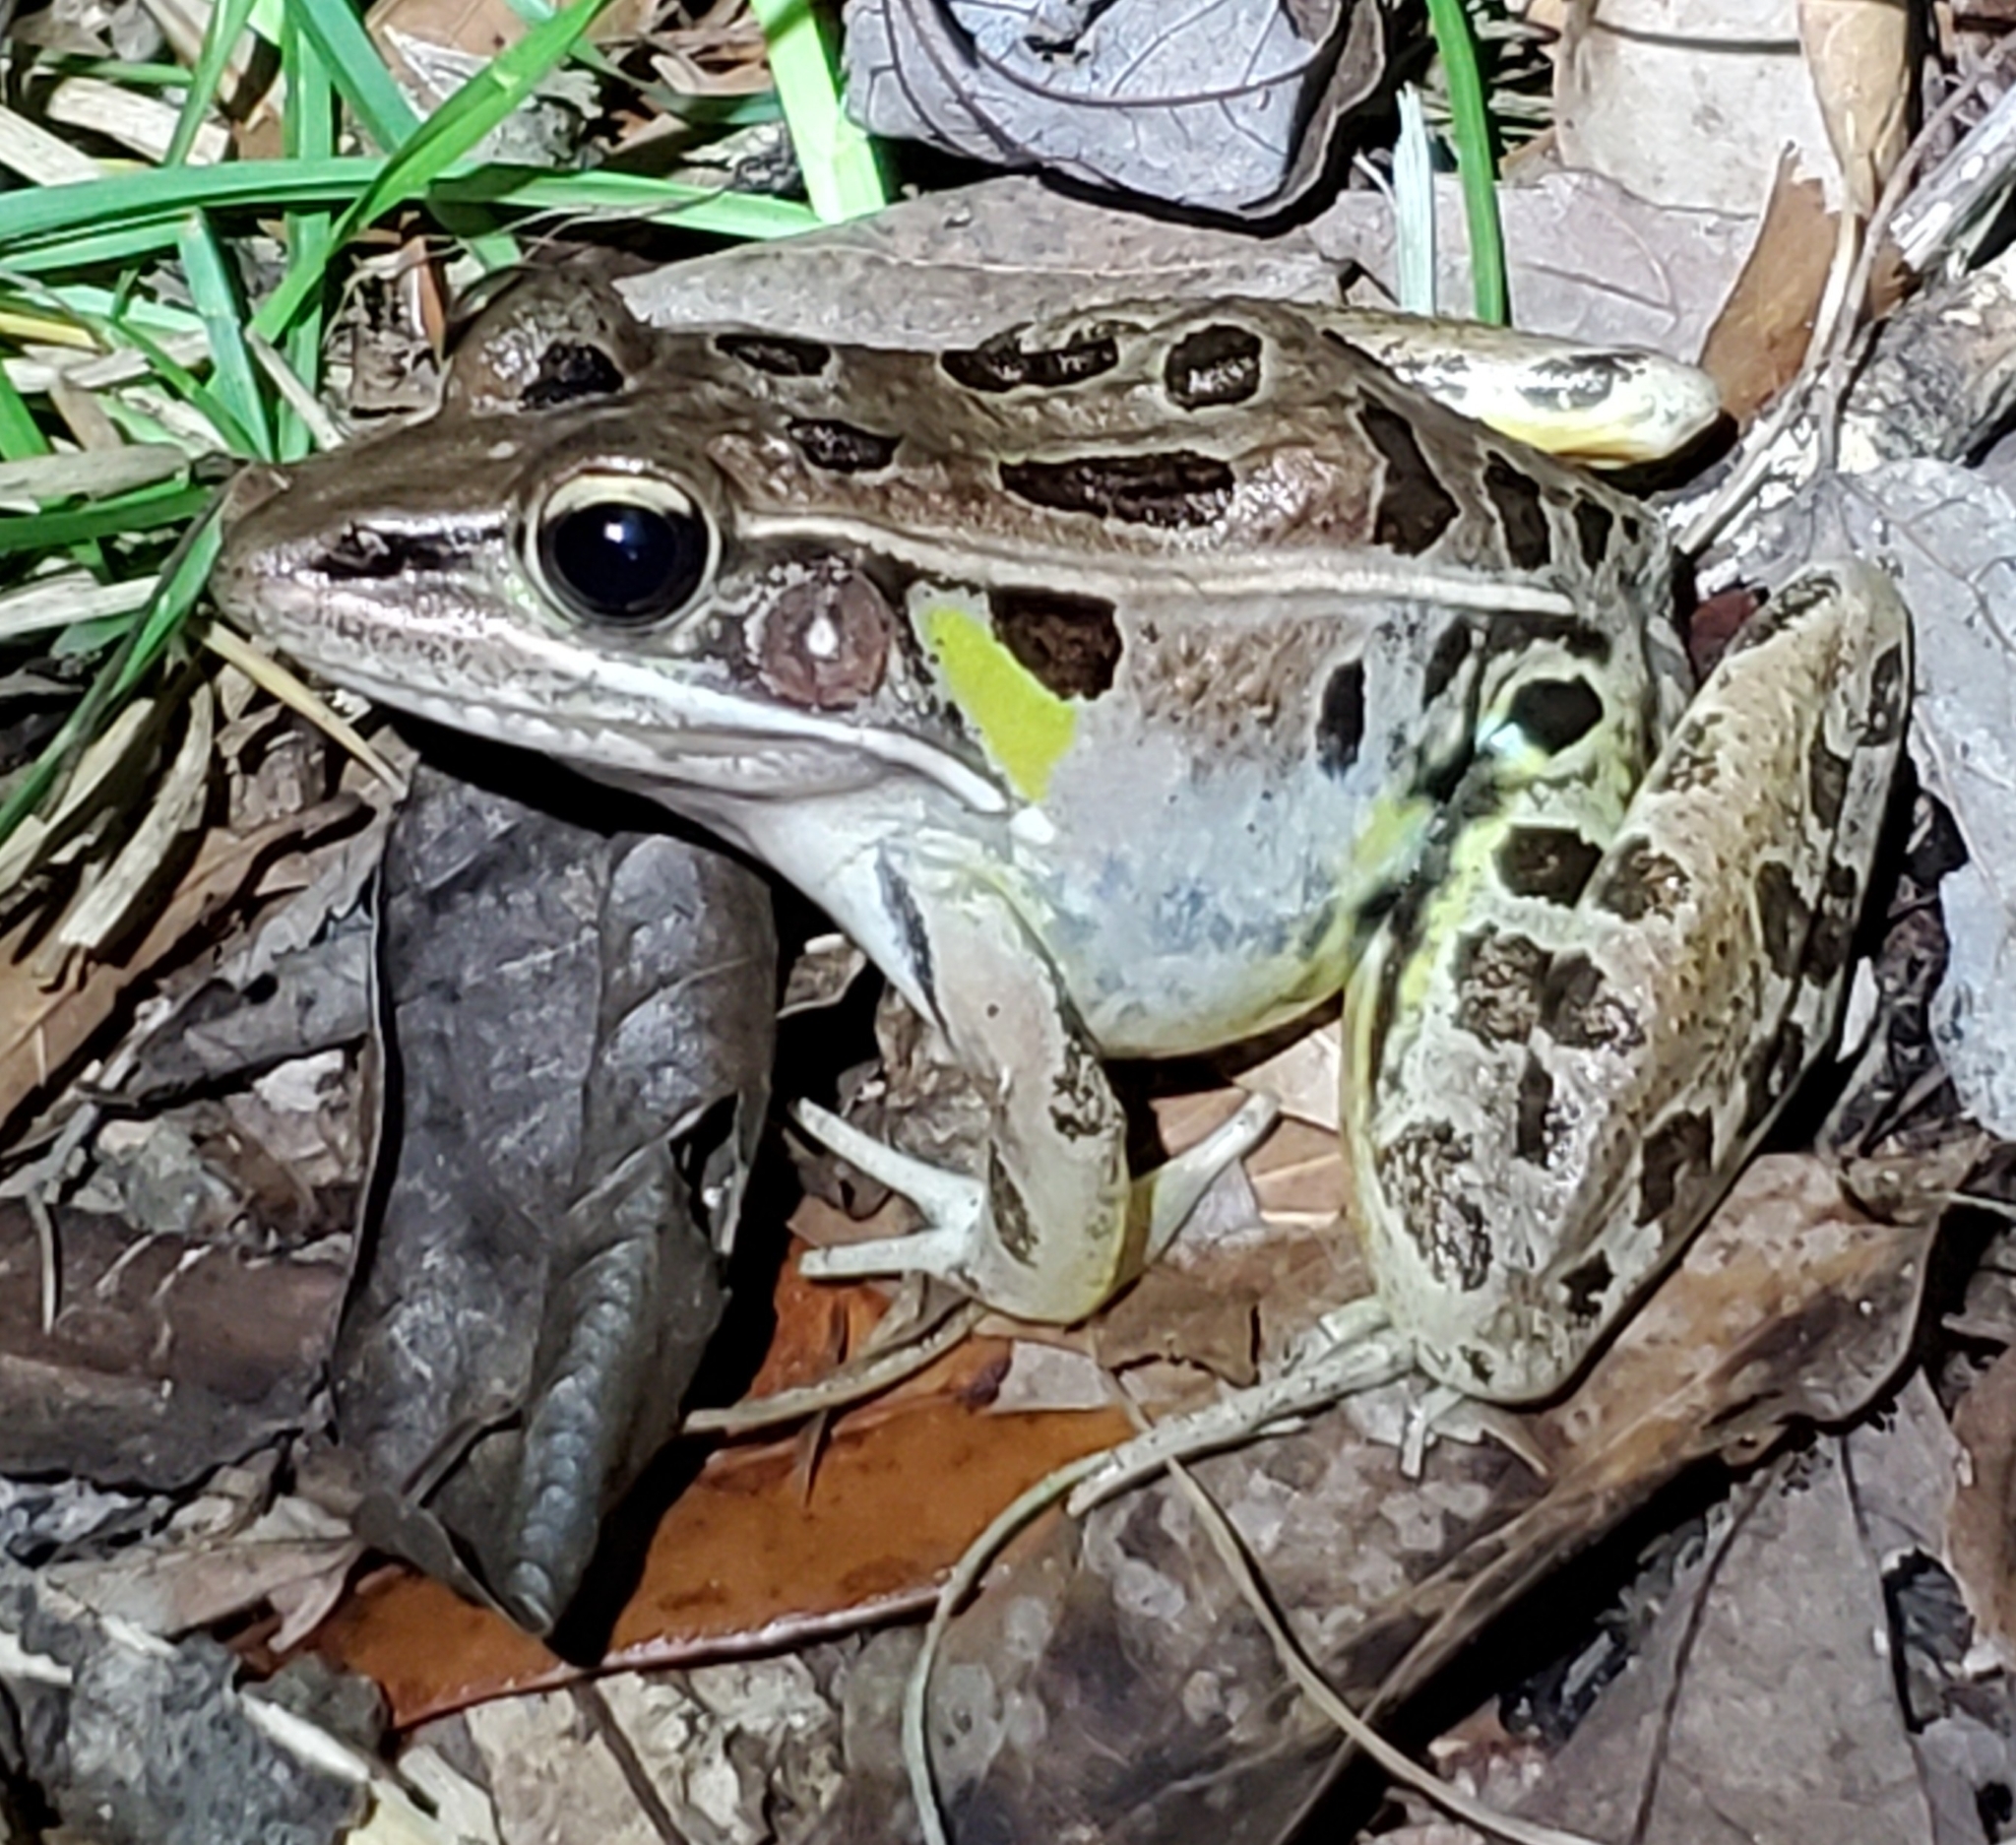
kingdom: Animalia
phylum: Chordata
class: Amphibia
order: Anura
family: Ranidae
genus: Lithobates
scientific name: Lithobates sphenocephalus
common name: Southern leopard frog
